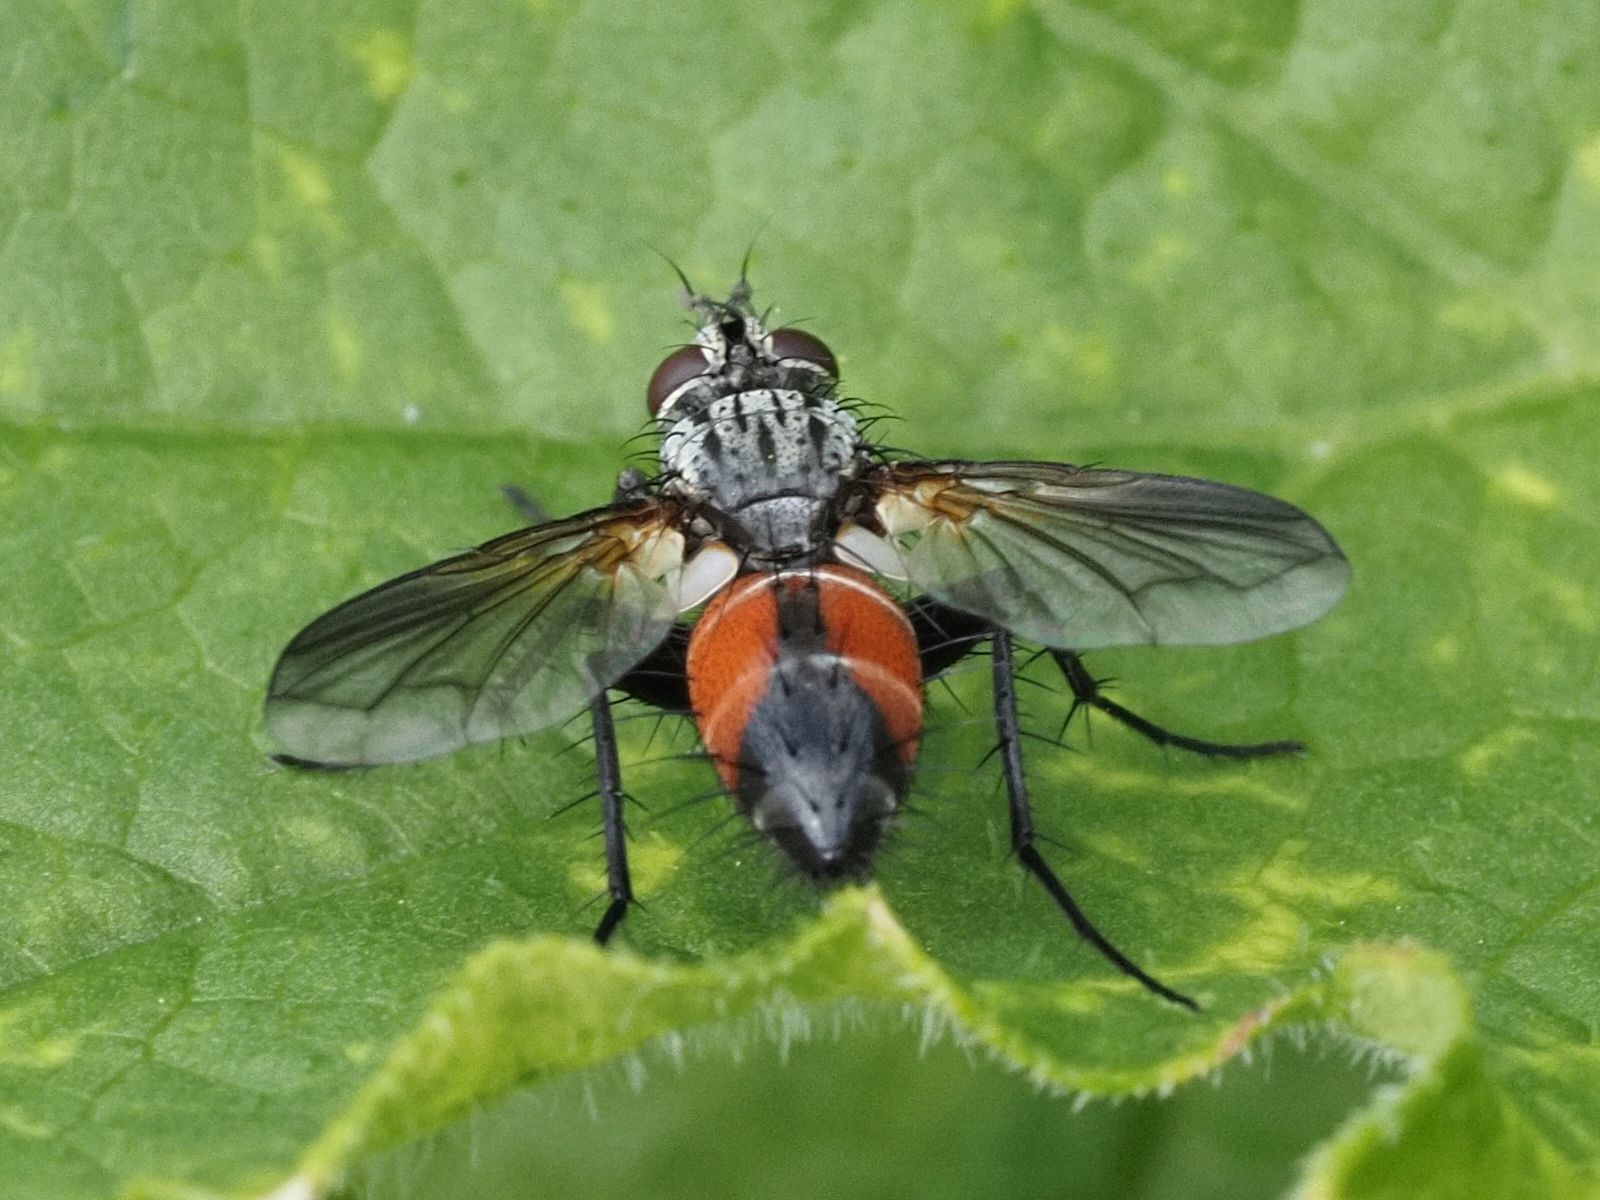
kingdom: Animalia
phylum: Arthropoda
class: Insecta
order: Diptera
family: Tachinidae
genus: Eriothrix
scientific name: Eriothrix rufomaculatus
